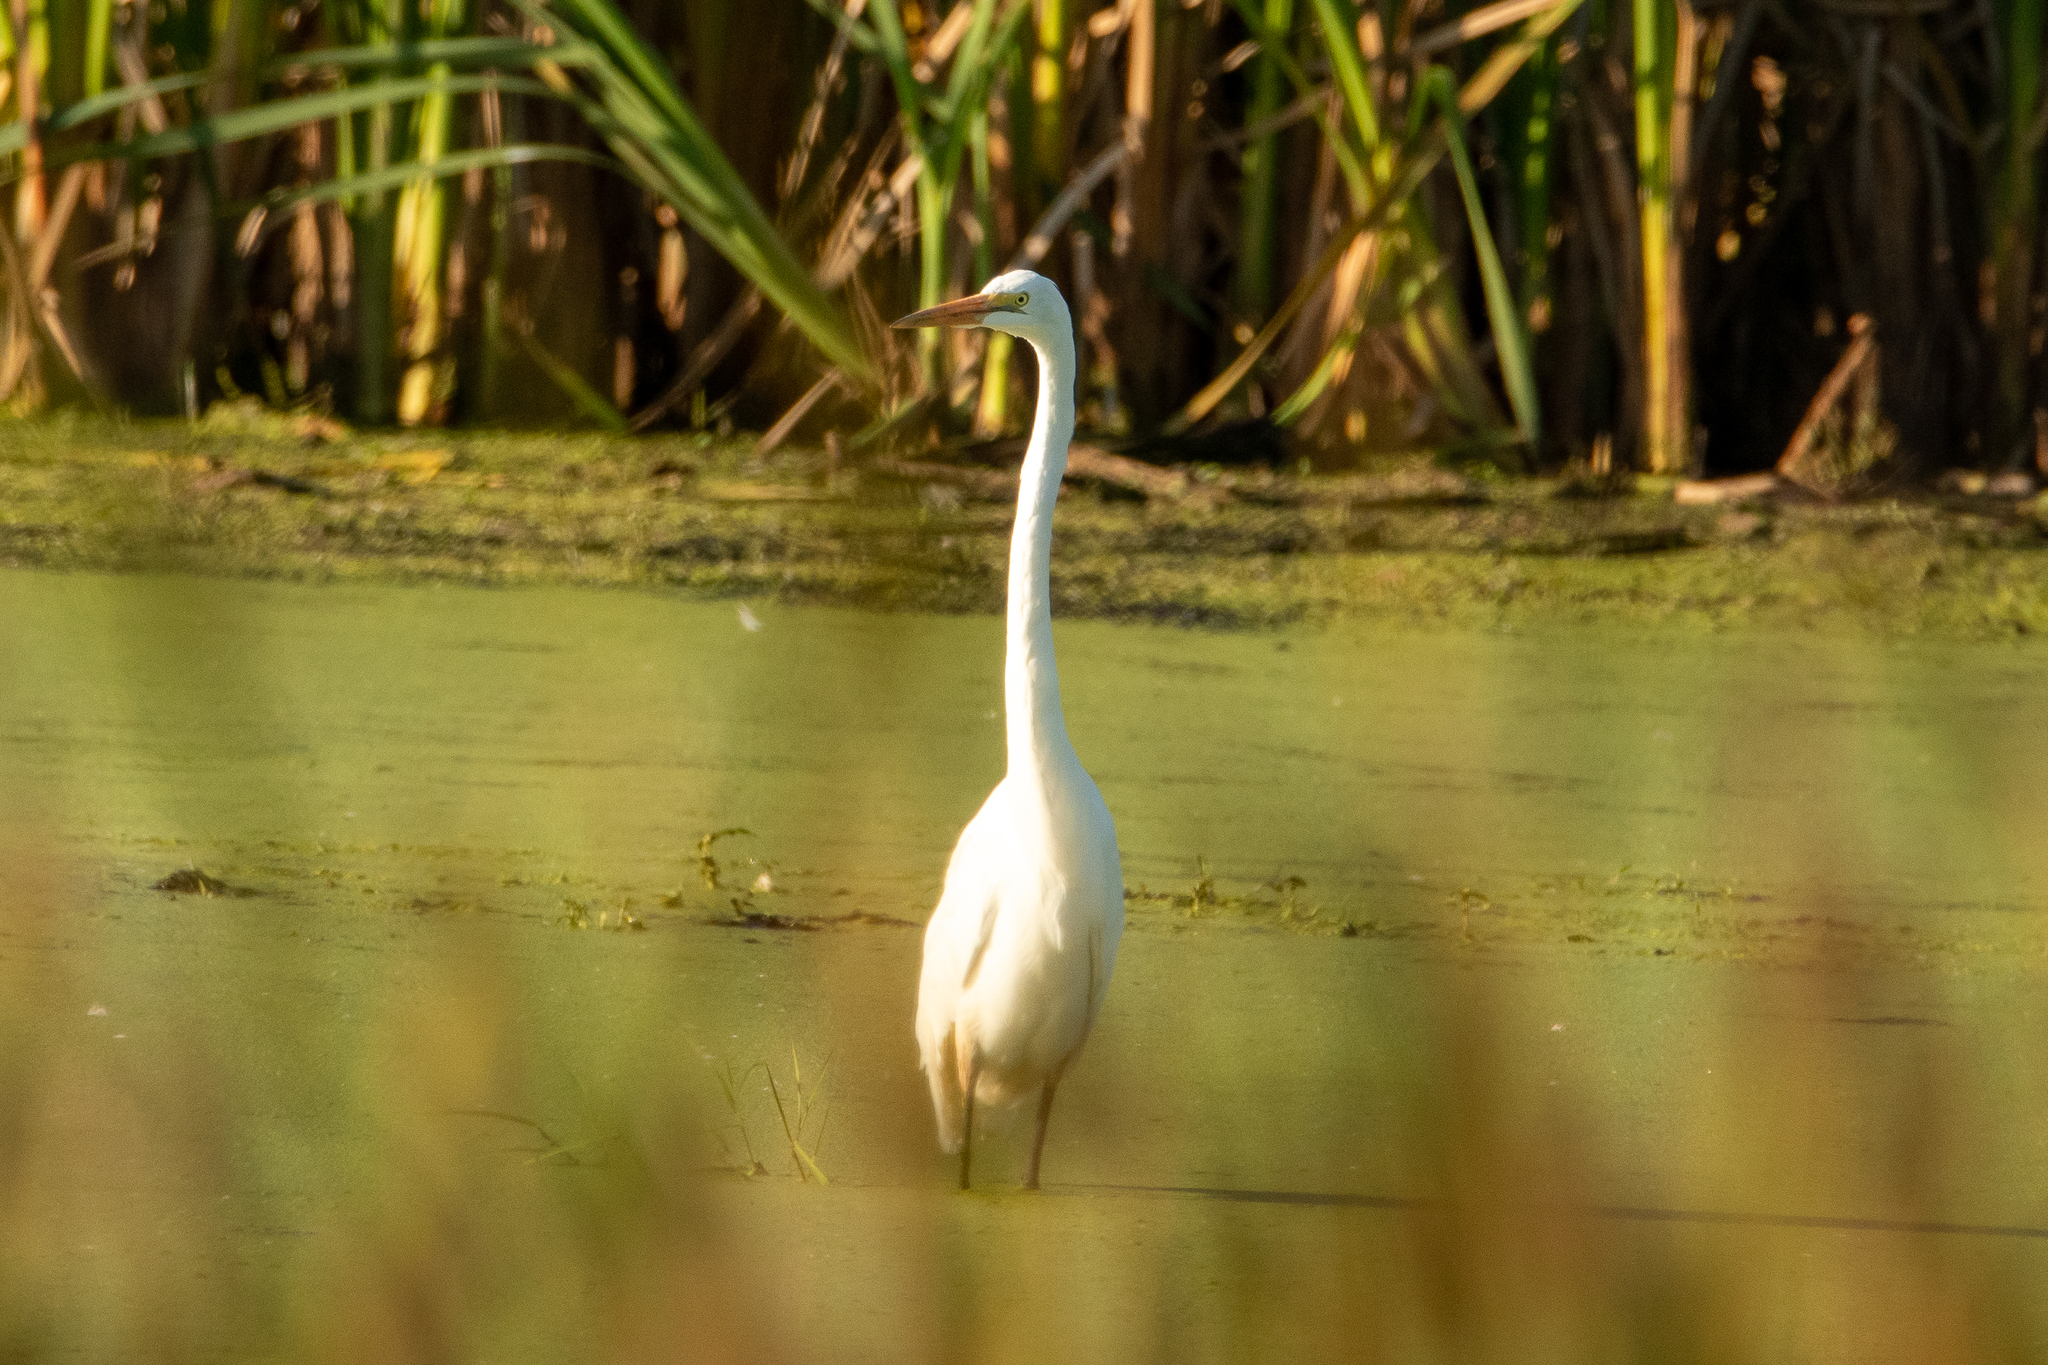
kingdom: Animalia
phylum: Chordata
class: Aves
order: Pelecaniformes
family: Ardeidae
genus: Ardea
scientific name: Ardea alba
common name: Great egret
